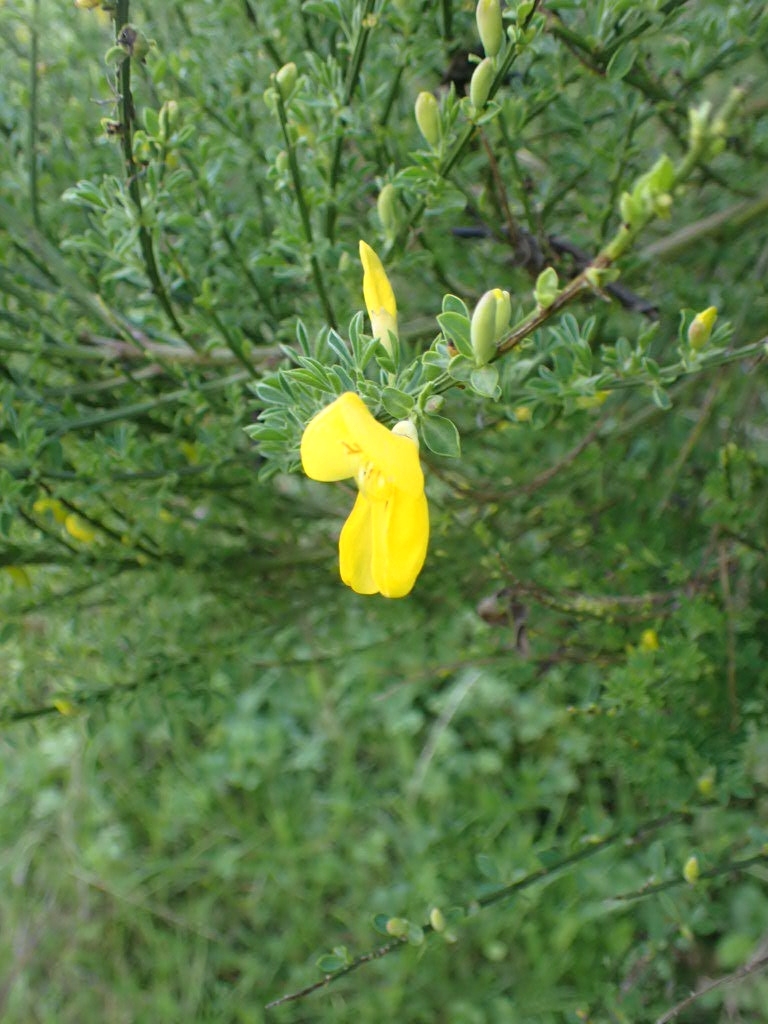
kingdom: Plantae
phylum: Tracheophyta
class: Magnoliopsida
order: Fabales
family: Fabaceae
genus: Cytisus
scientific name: Cytisus scoparius
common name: Scotch broom
